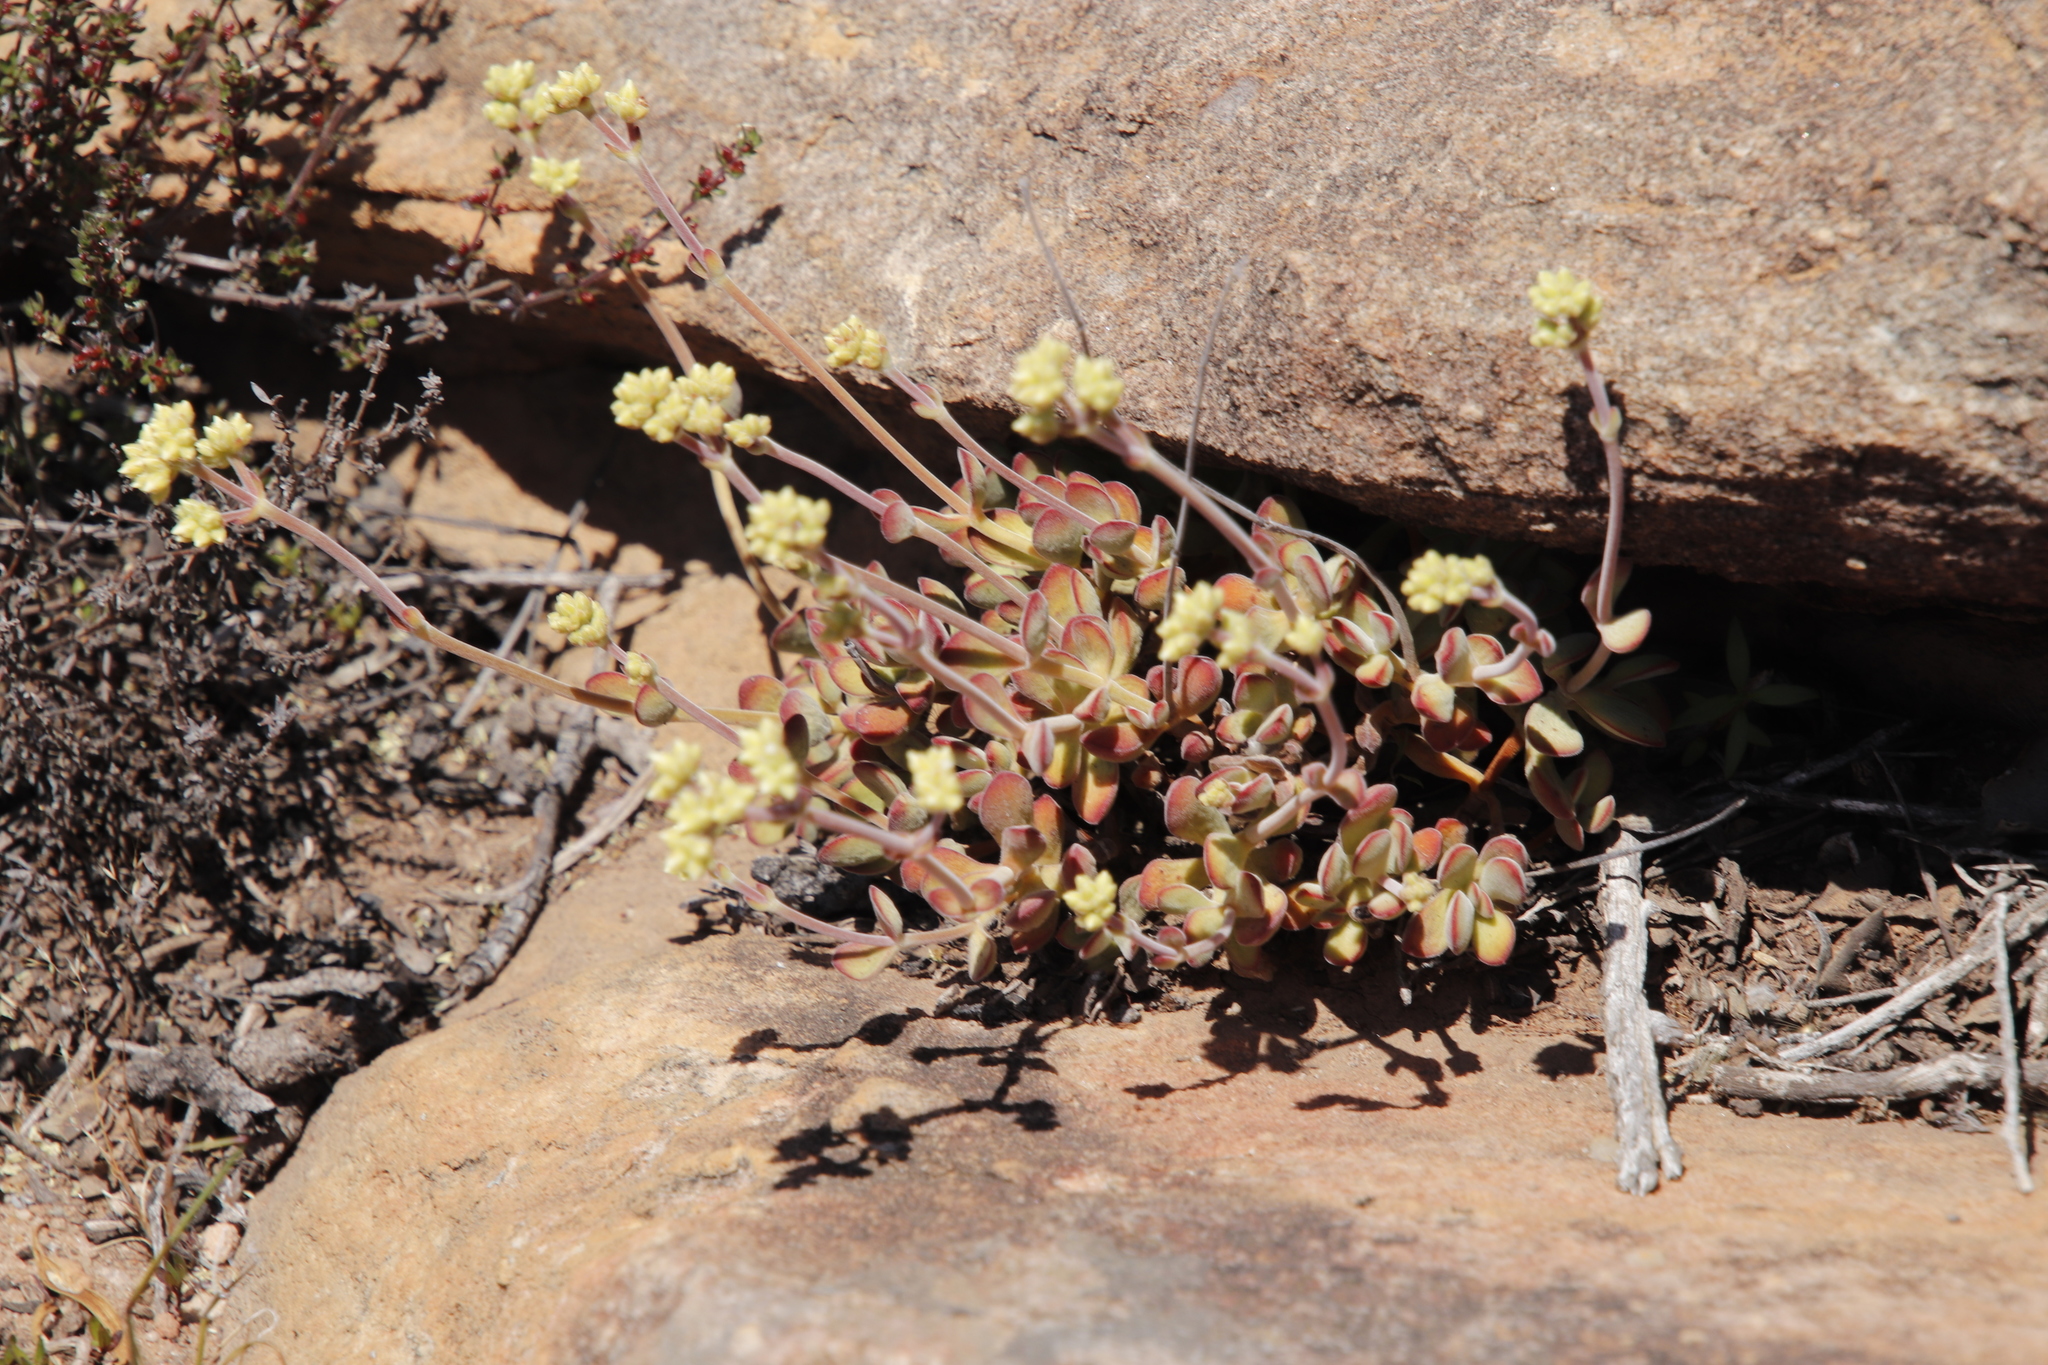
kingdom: Plantae
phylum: Tracheophyta
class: Magnoliopsida
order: Saxifragales
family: Crassulaceae
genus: Crassula
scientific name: Crassula atropurpurea
